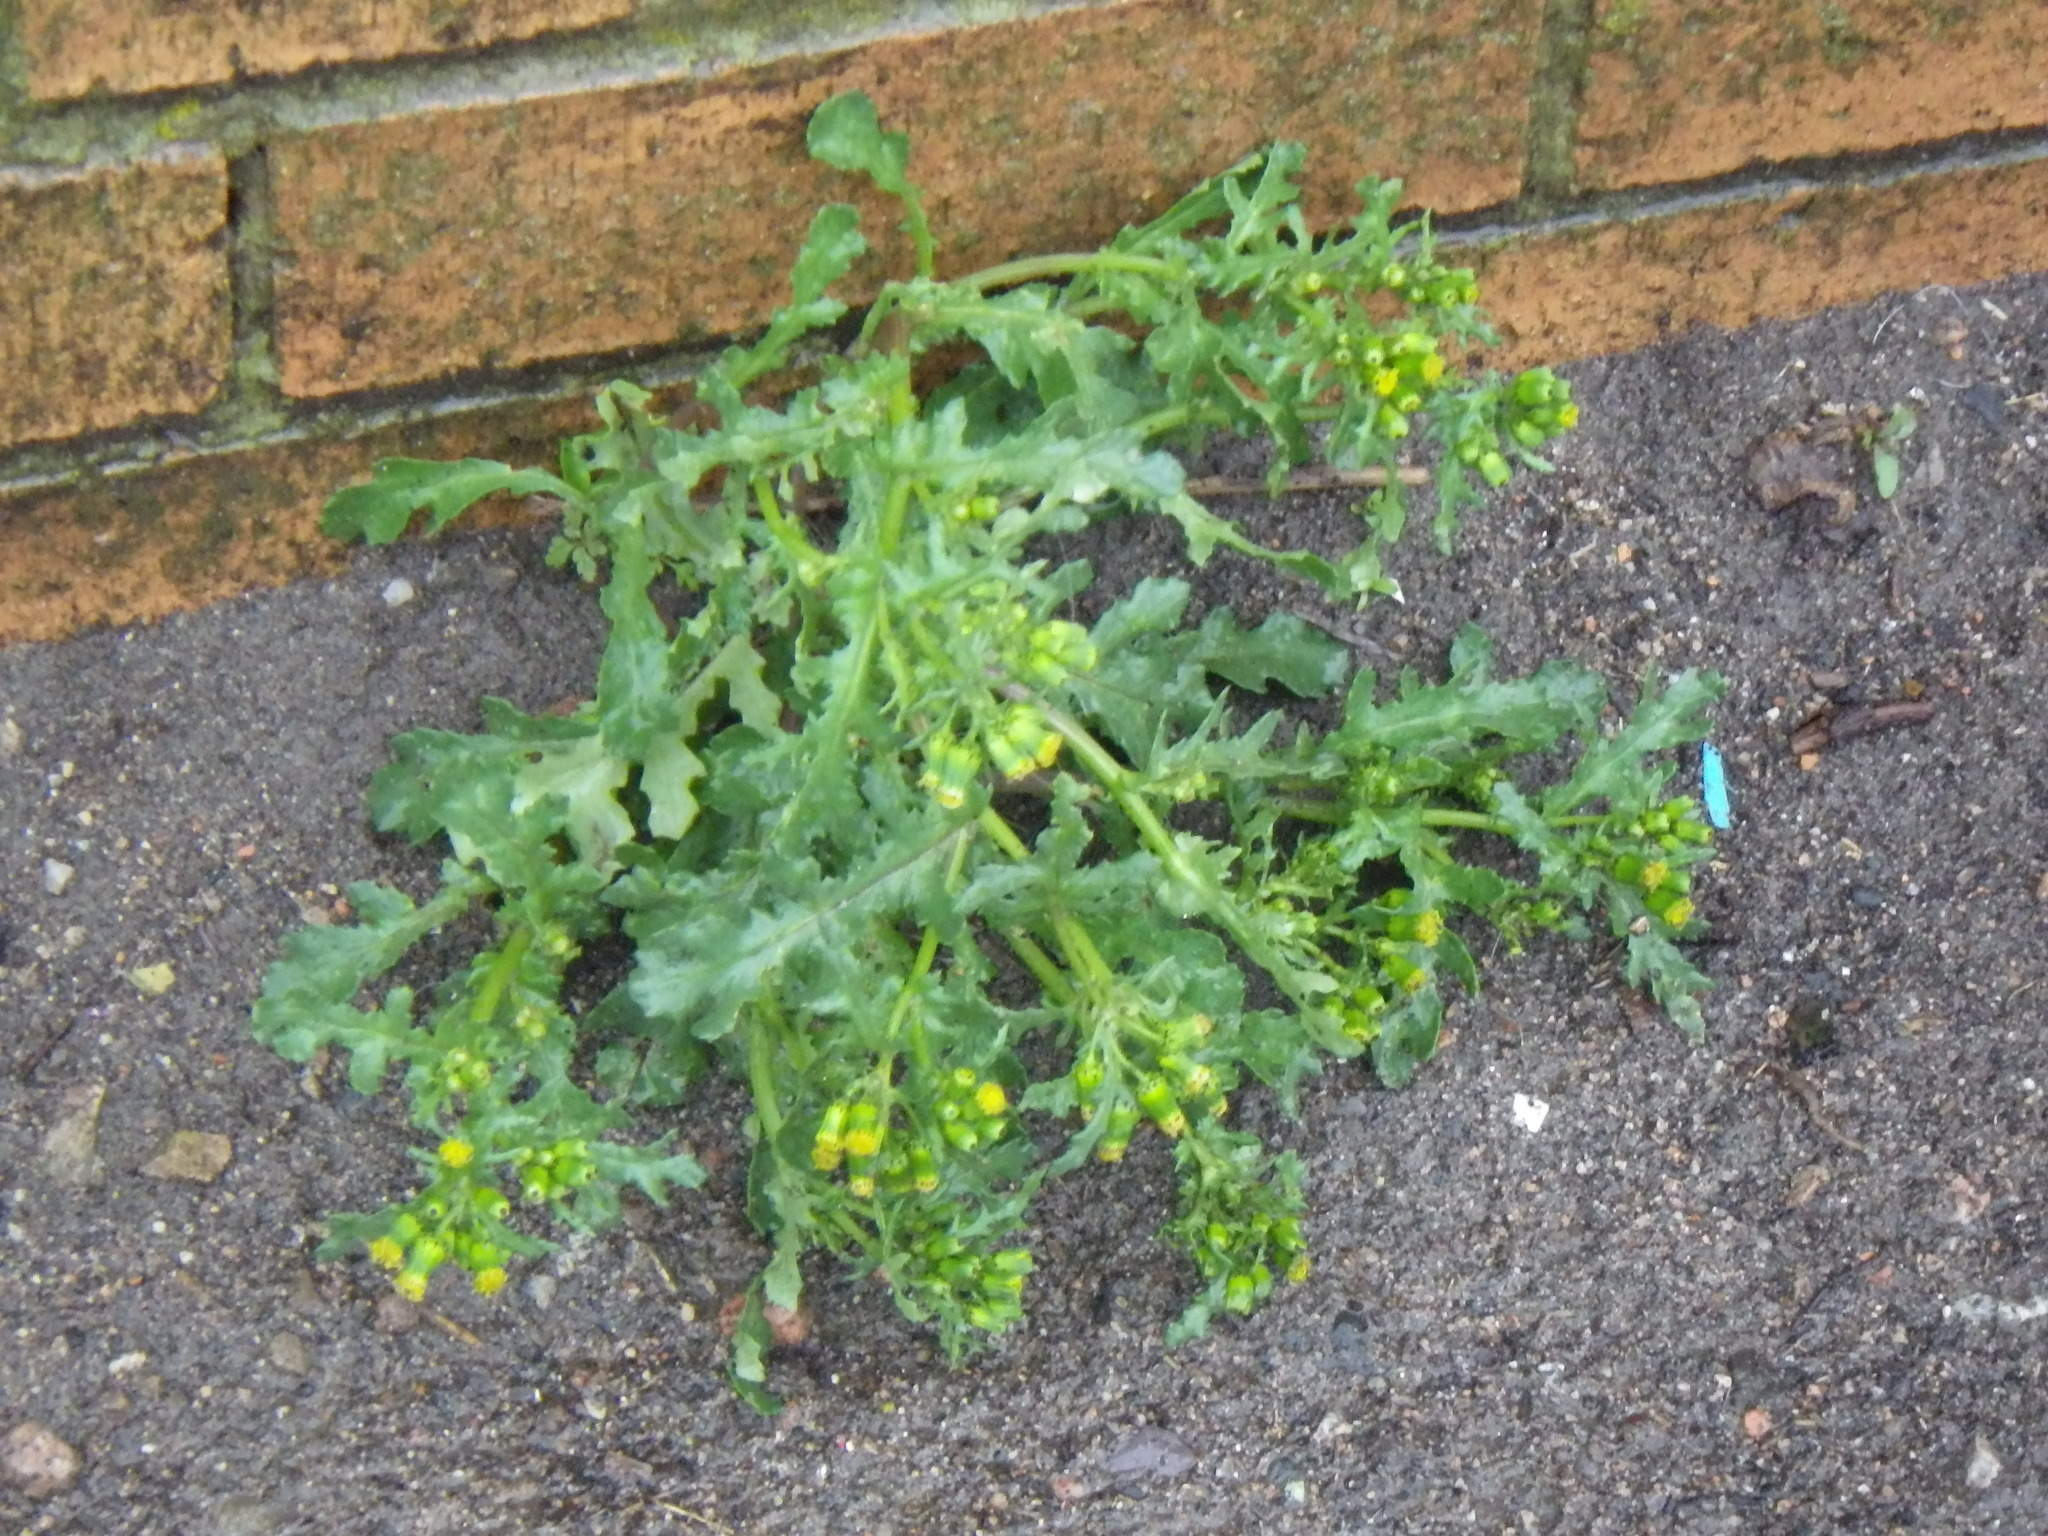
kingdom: Plantae
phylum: Tracheophyta
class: Magnoliopsida
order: Asterales
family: Asteraceae
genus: Senecio
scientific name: Senecio vulgaris
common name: Old-man-in-the-spring
